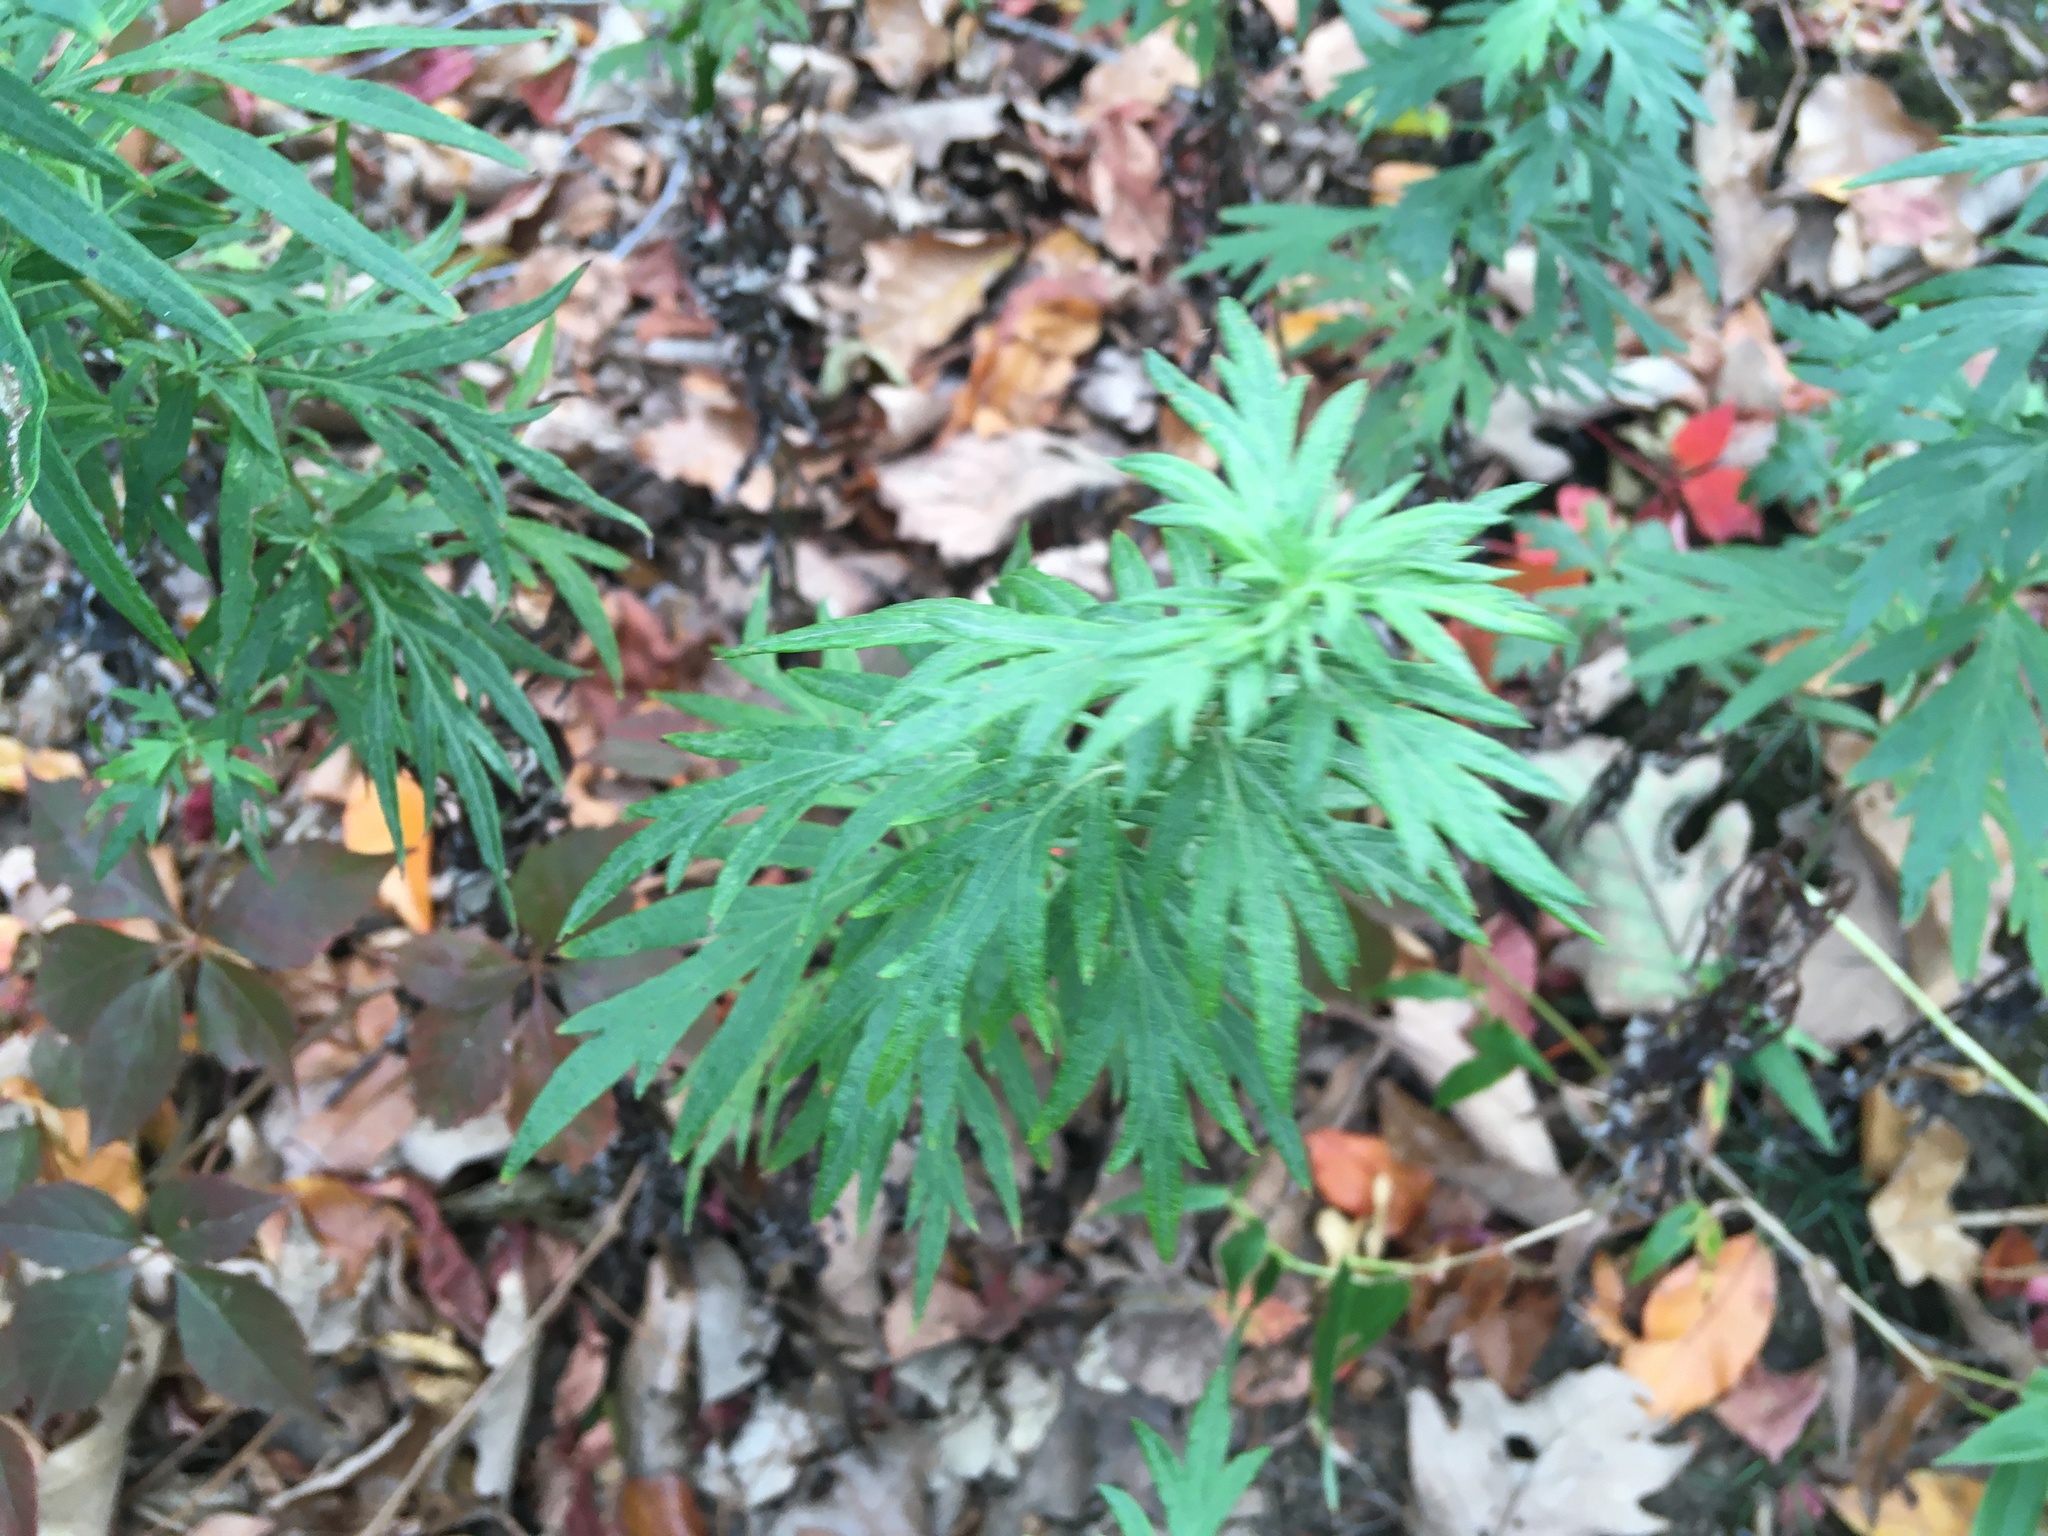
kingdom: Plantae
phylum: Tracheophyta
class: Magnoliopsida
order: Asterales
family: Asteraceae
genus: Artemisia
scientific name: Artemisia vulgaris
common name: Mugwort
